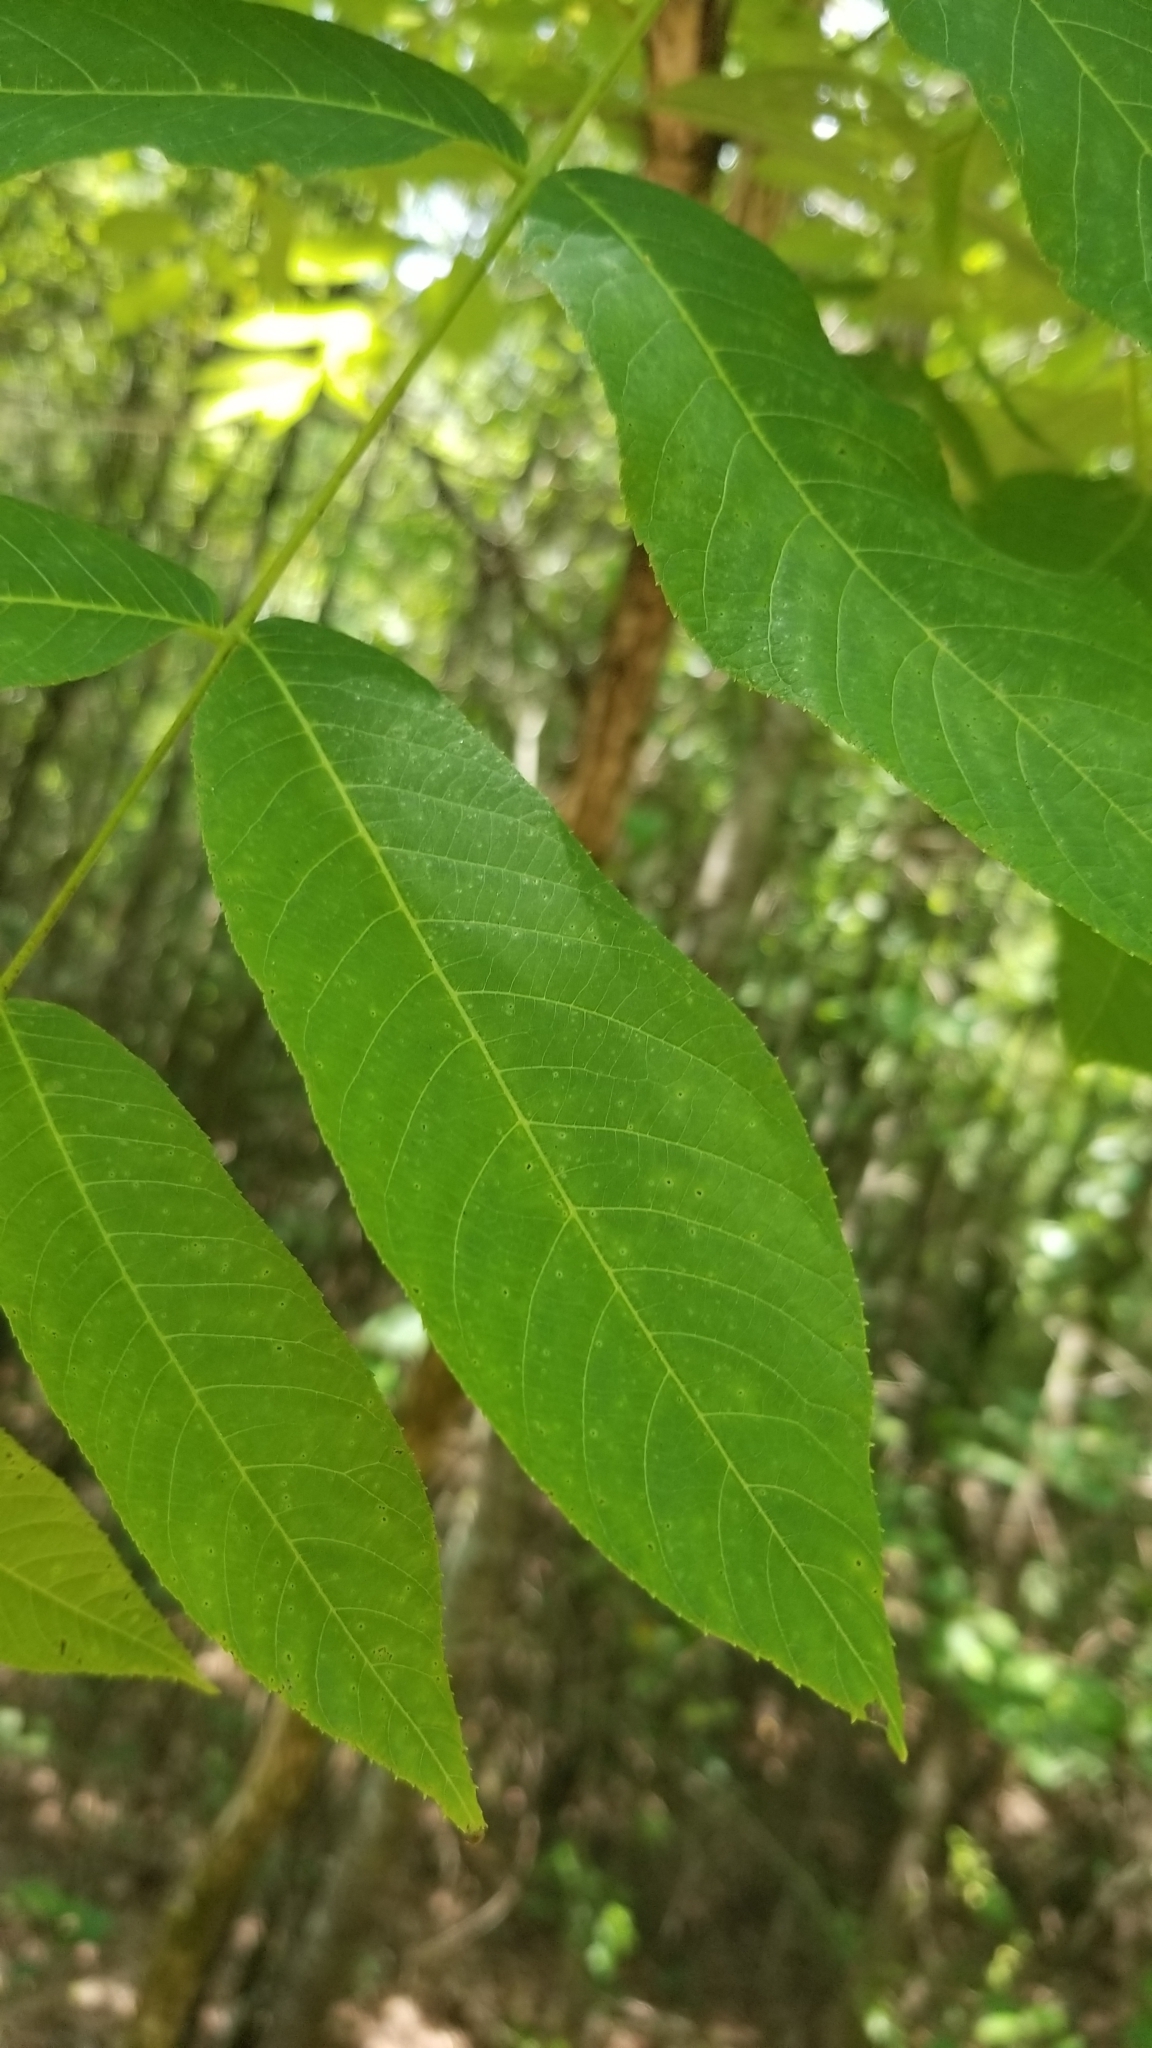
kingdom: Plantae
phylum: Tracheophyta
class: Magnoliopsida
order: Fagales
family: Juglandaceae
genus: Juglans
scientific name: Juglans nigra
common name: Black walnut
